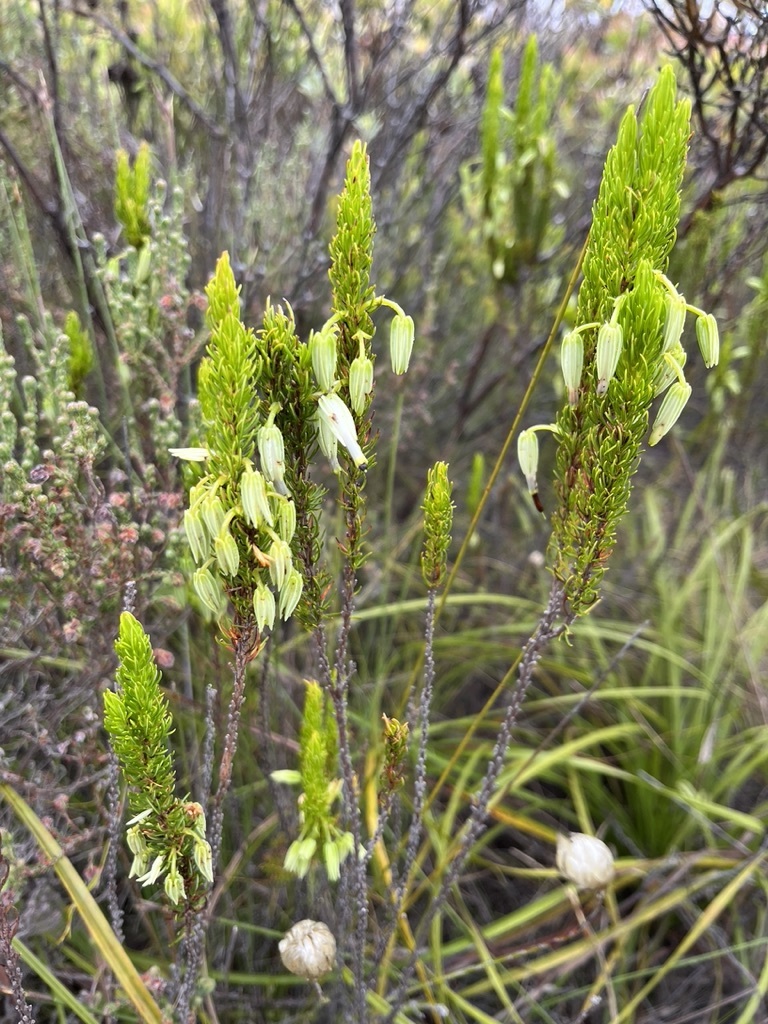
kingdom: Plantae
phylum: Tracheophyta
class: Magnoliopsida
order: Ericales
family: Ericaceae
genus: Erica
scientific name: Erica plukenetii
